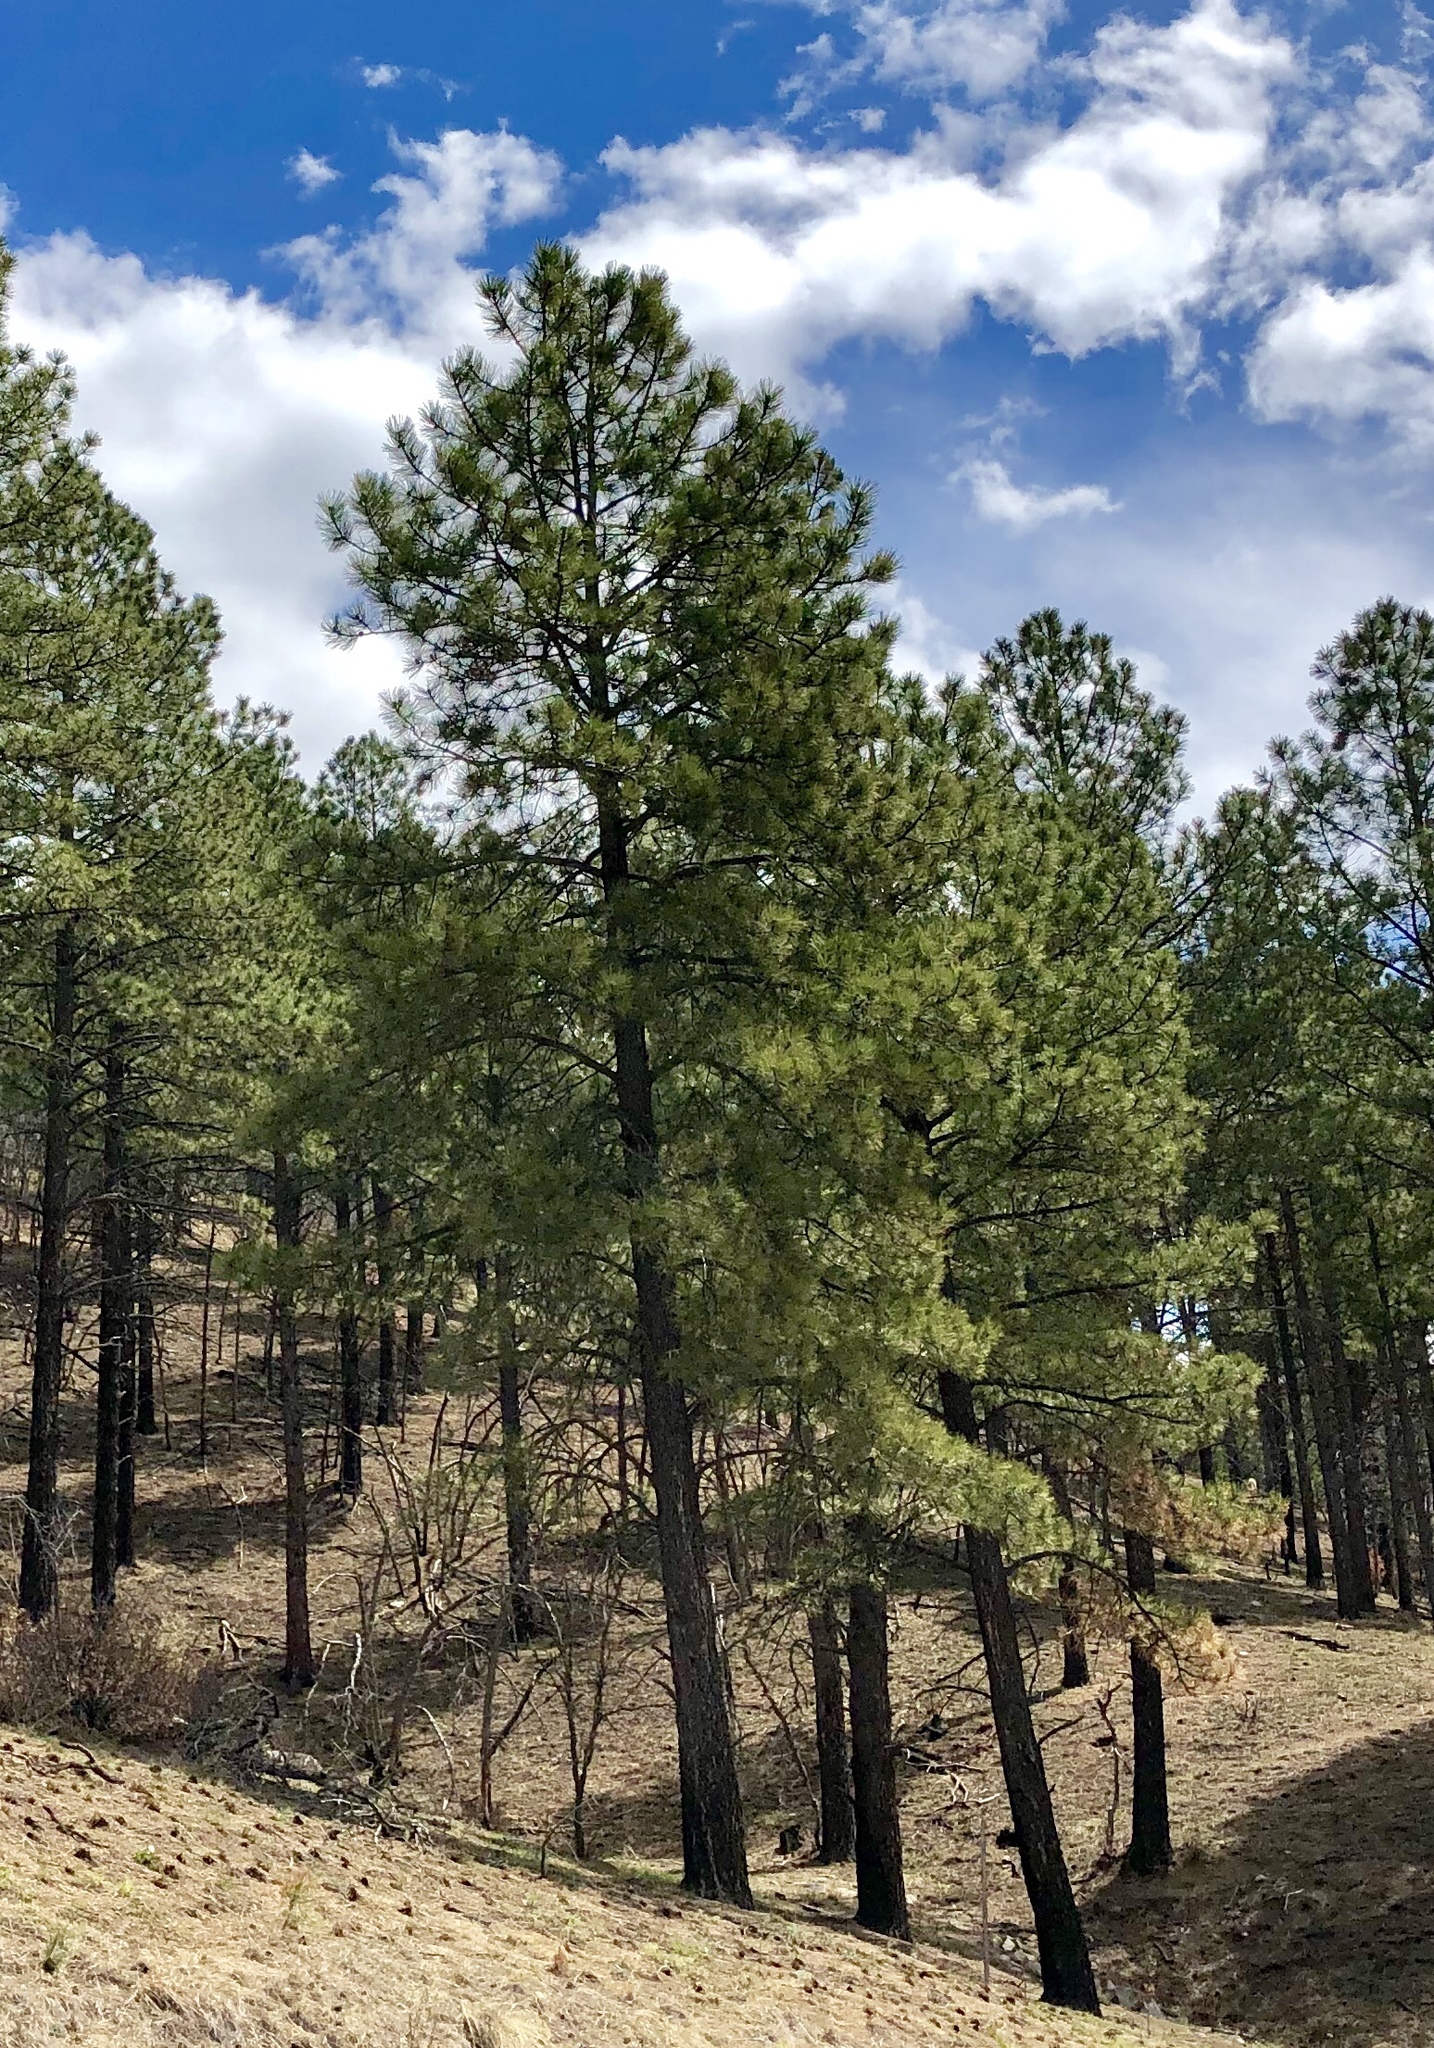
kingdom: Plantae
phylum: Tracheophyta
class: Pinopsida
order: Pinales
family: Pinaceae
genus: Pinus
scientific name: Pinus ponderosa
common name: Western yellow-pine
